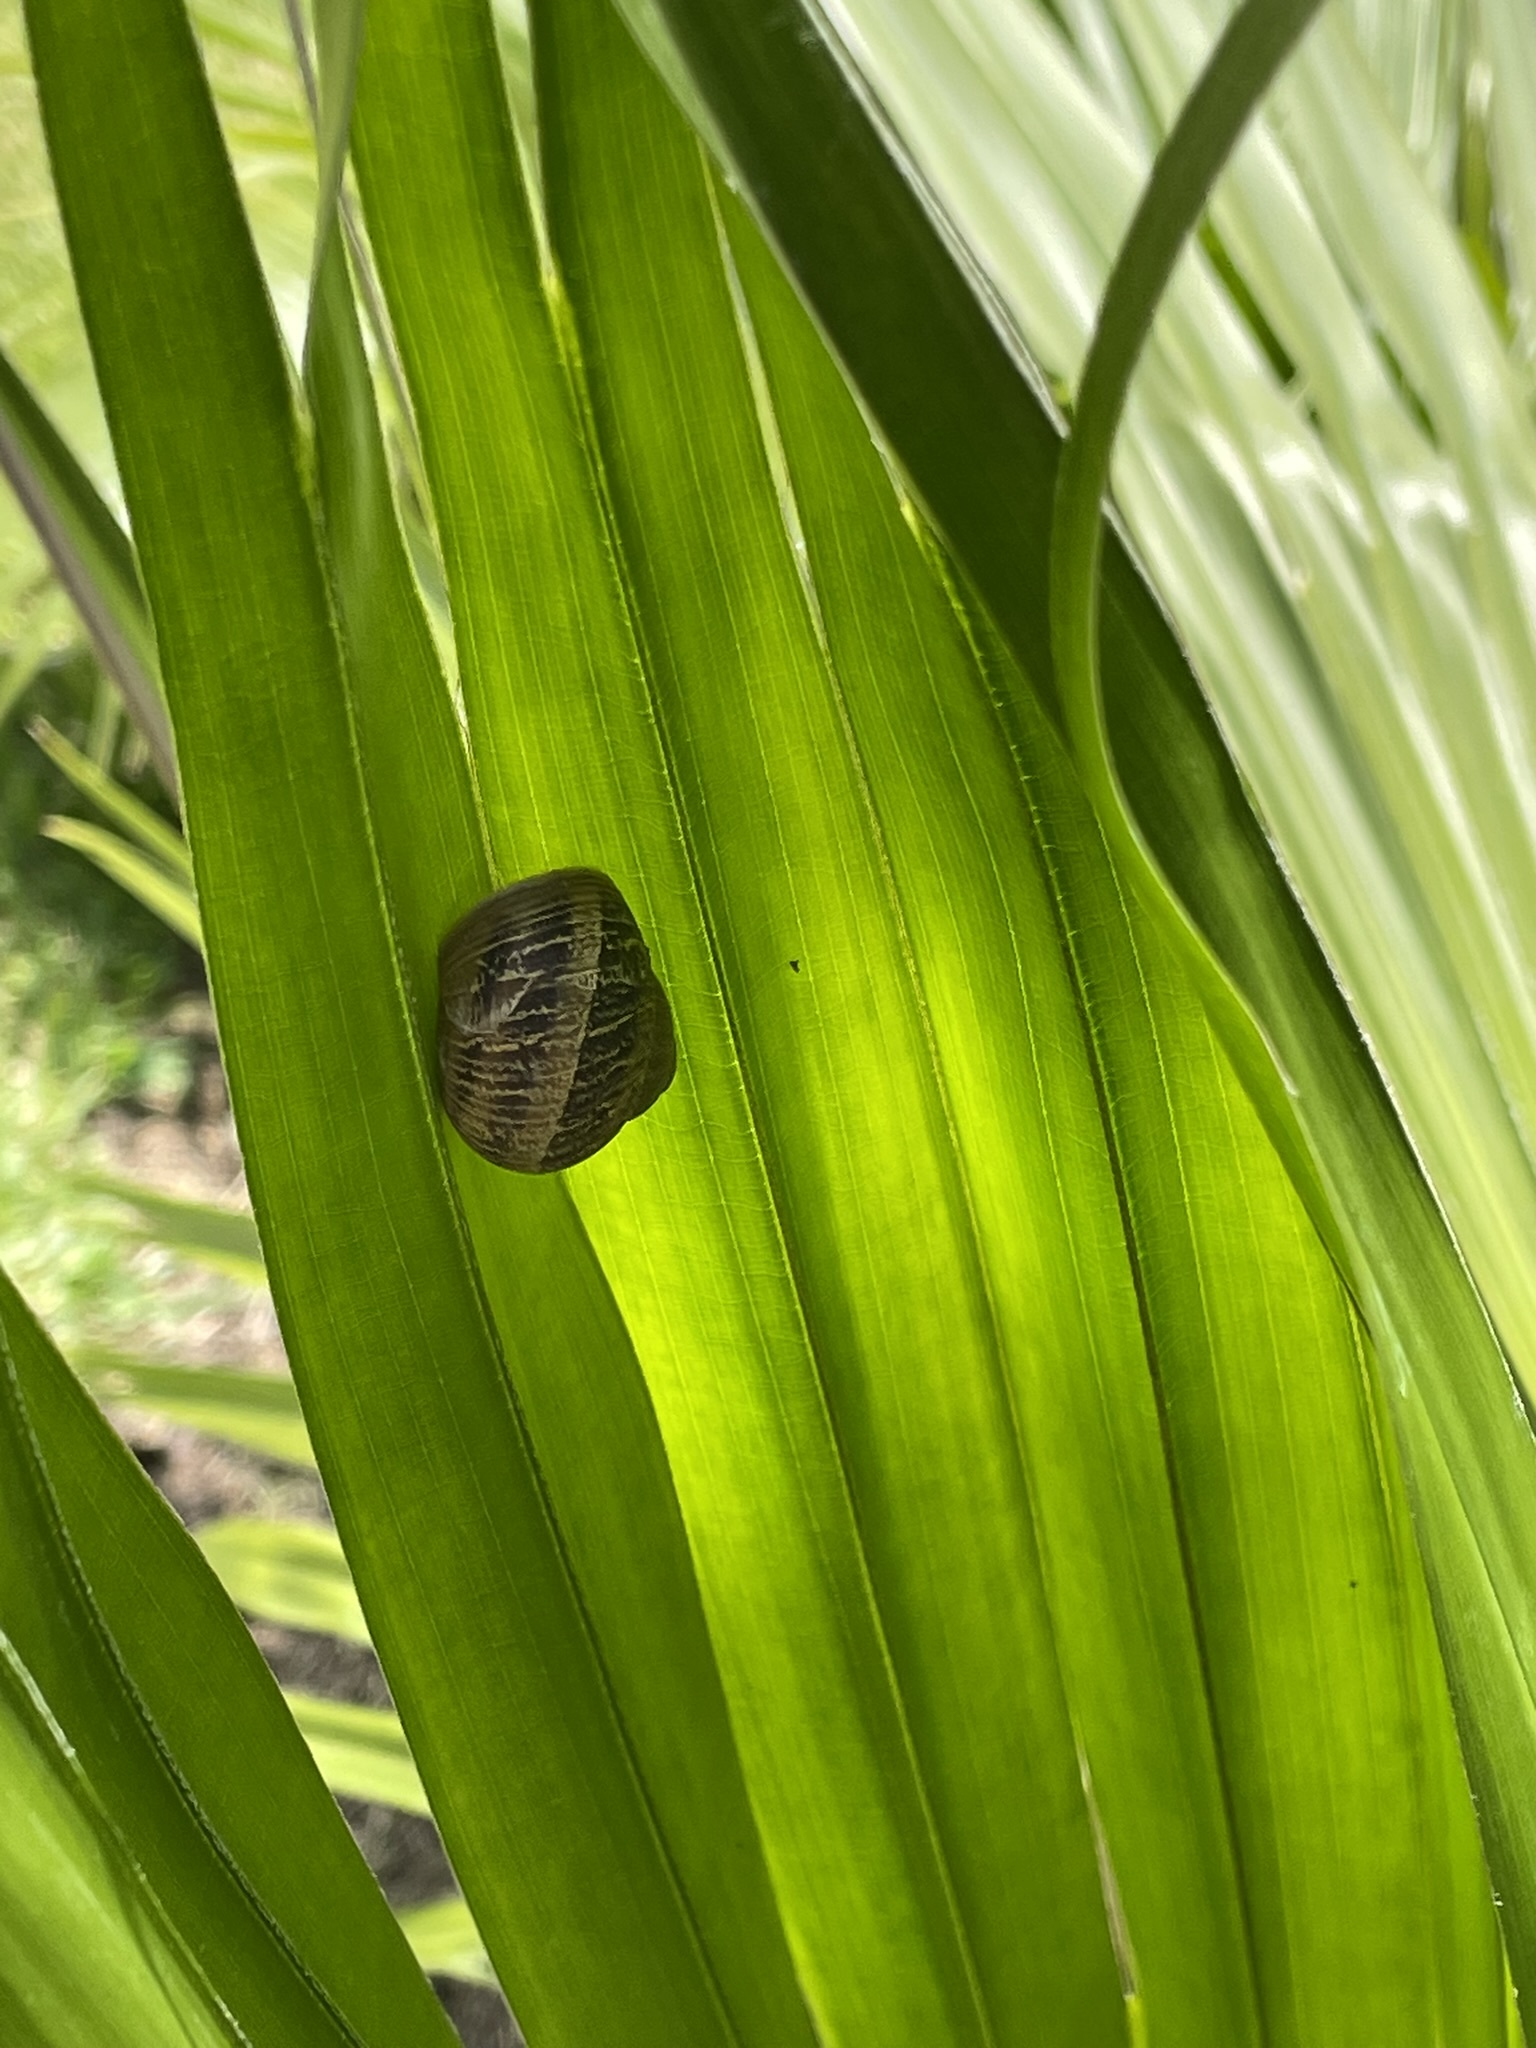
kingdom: Animalia
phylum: Mollusca
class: Gastropoda
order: Stylommatophora
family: Helicidae
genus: Cornu
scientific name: Cornu aspersum
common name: Brown garden snail
